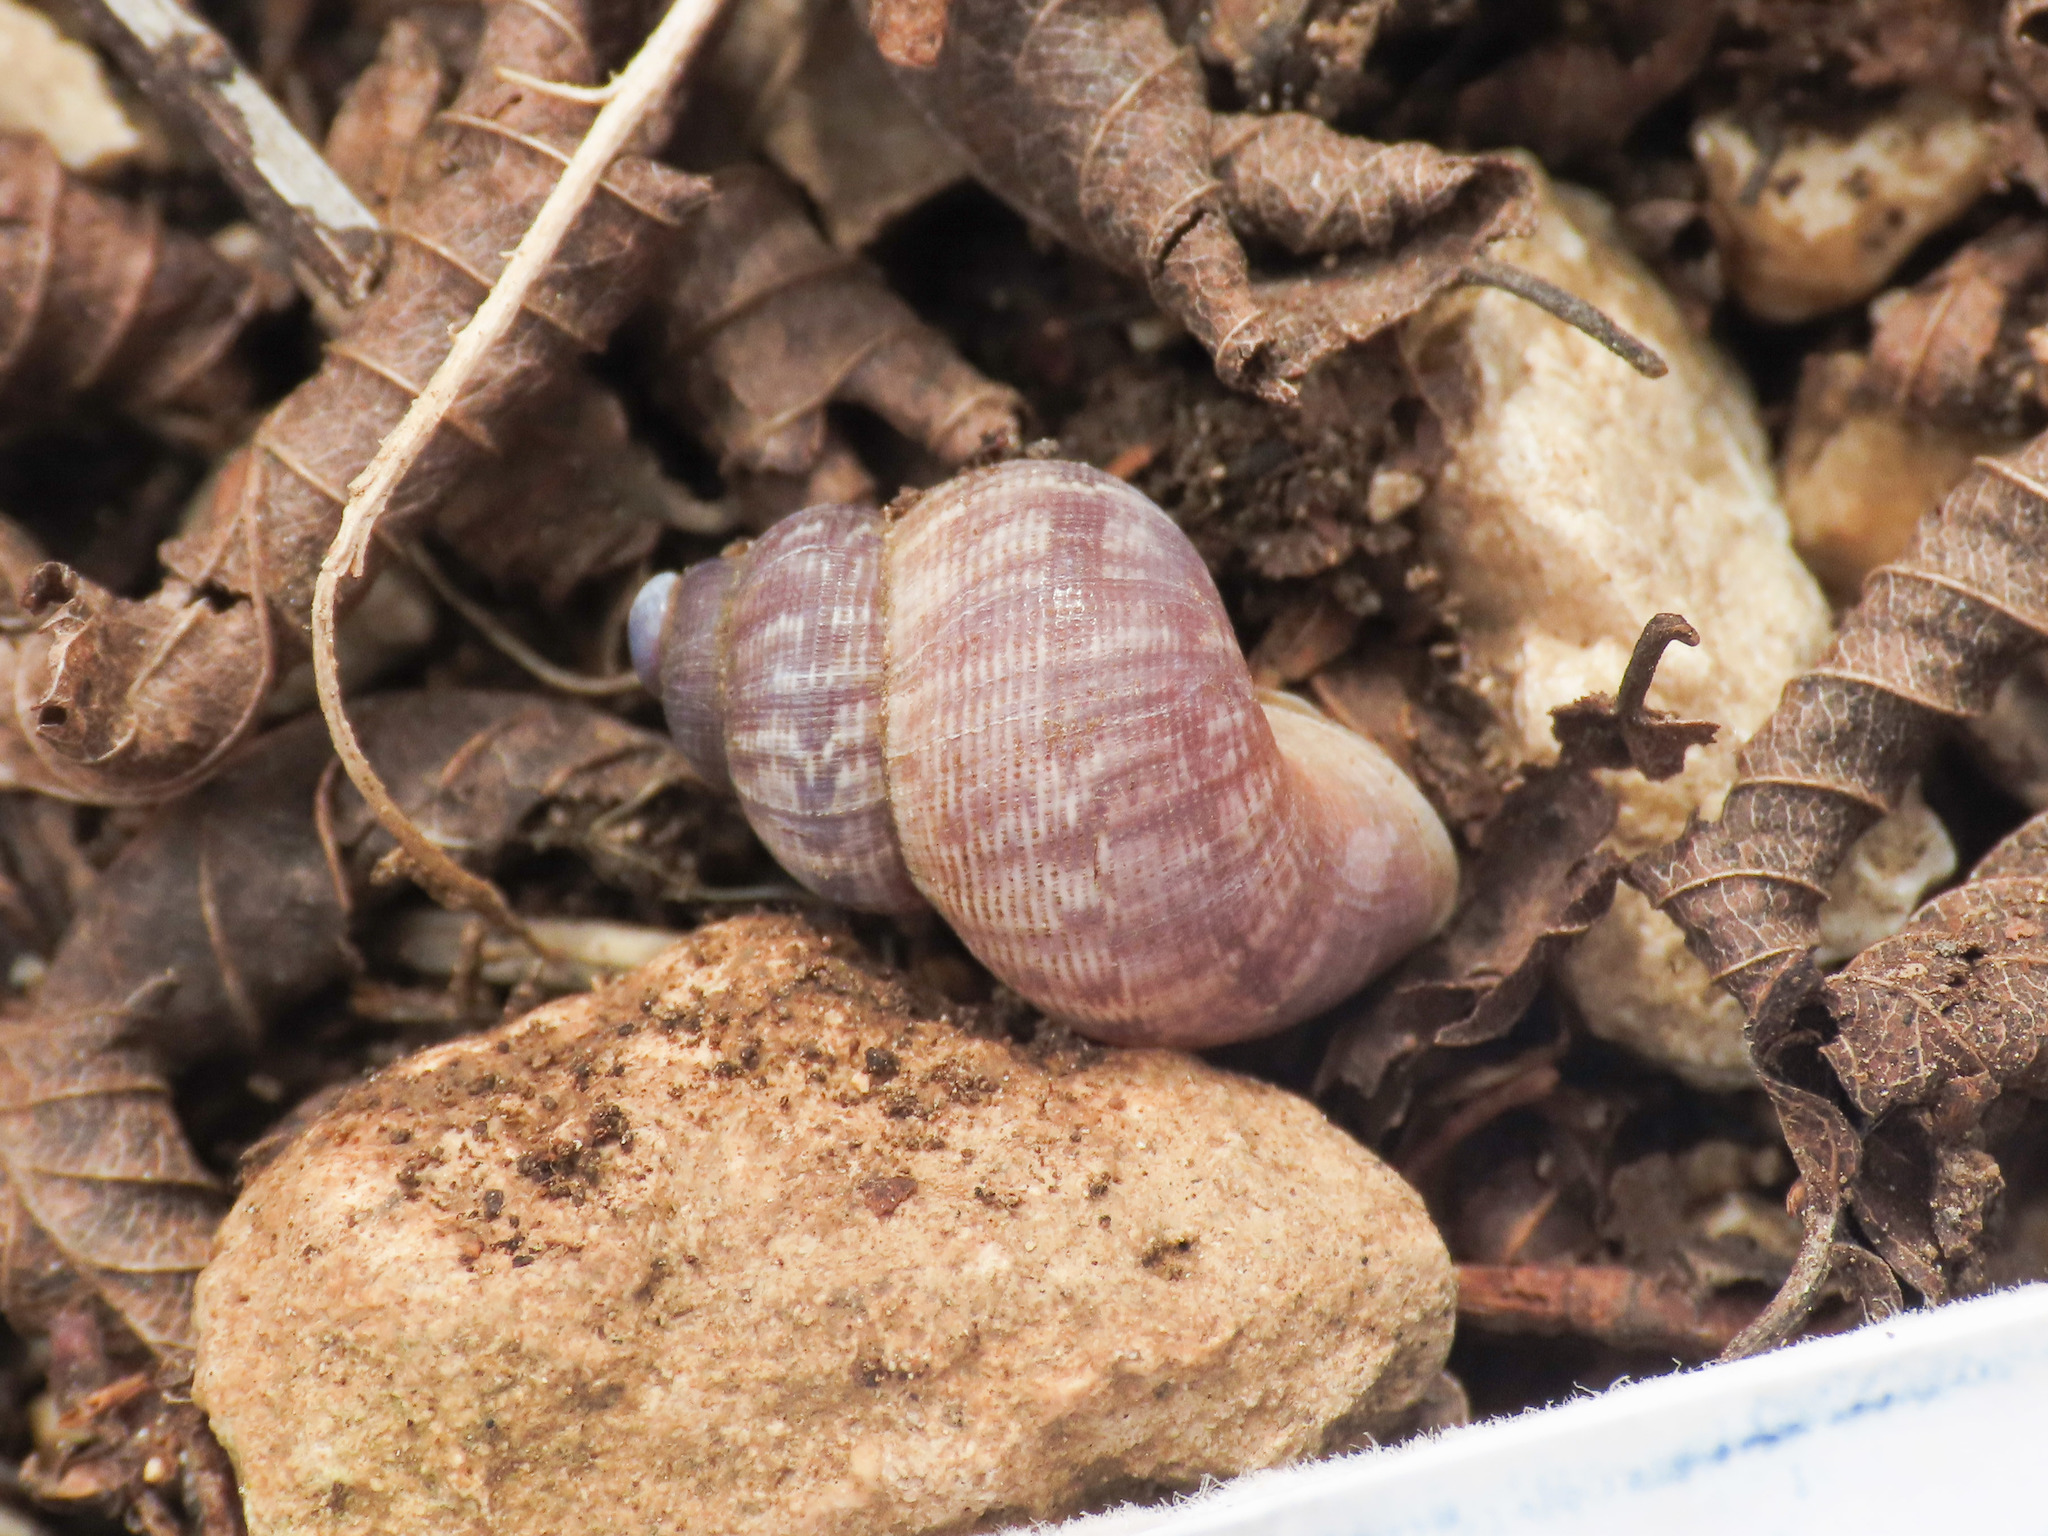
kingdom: Animalia
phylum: Mollusca
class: Gastropoda
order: Littorinimorpha
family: Pomatiidae
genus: Pomatias
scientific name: Pomatias elegans
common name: Red-mouthed snail
